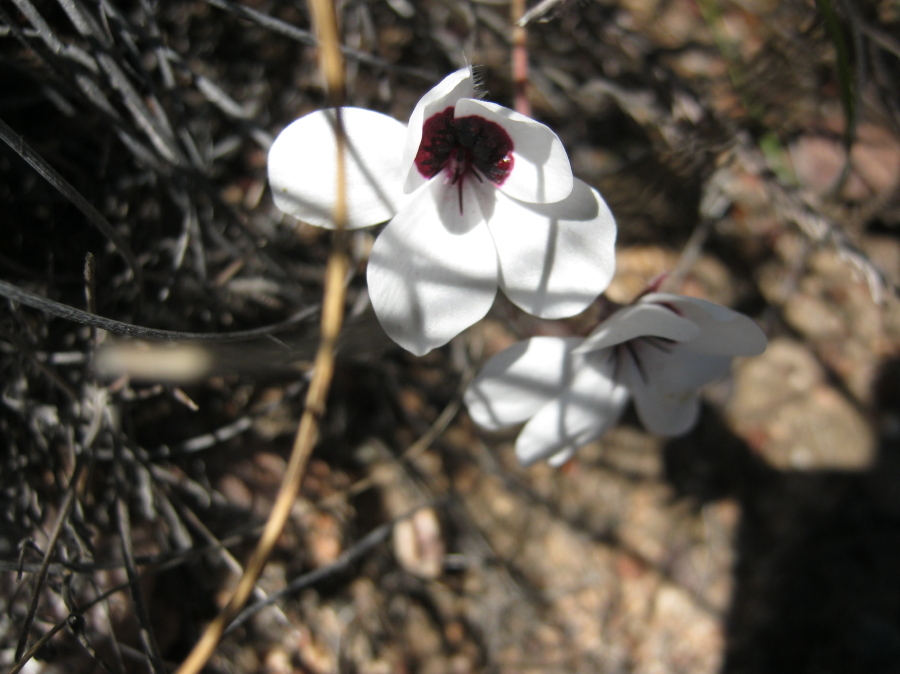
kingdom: Plantae
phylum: Tracheophyta
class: Magnoliopsida
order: Geraniales
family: Geraniaceae
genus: Pelargonium
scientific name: Pelargonium tricolor
